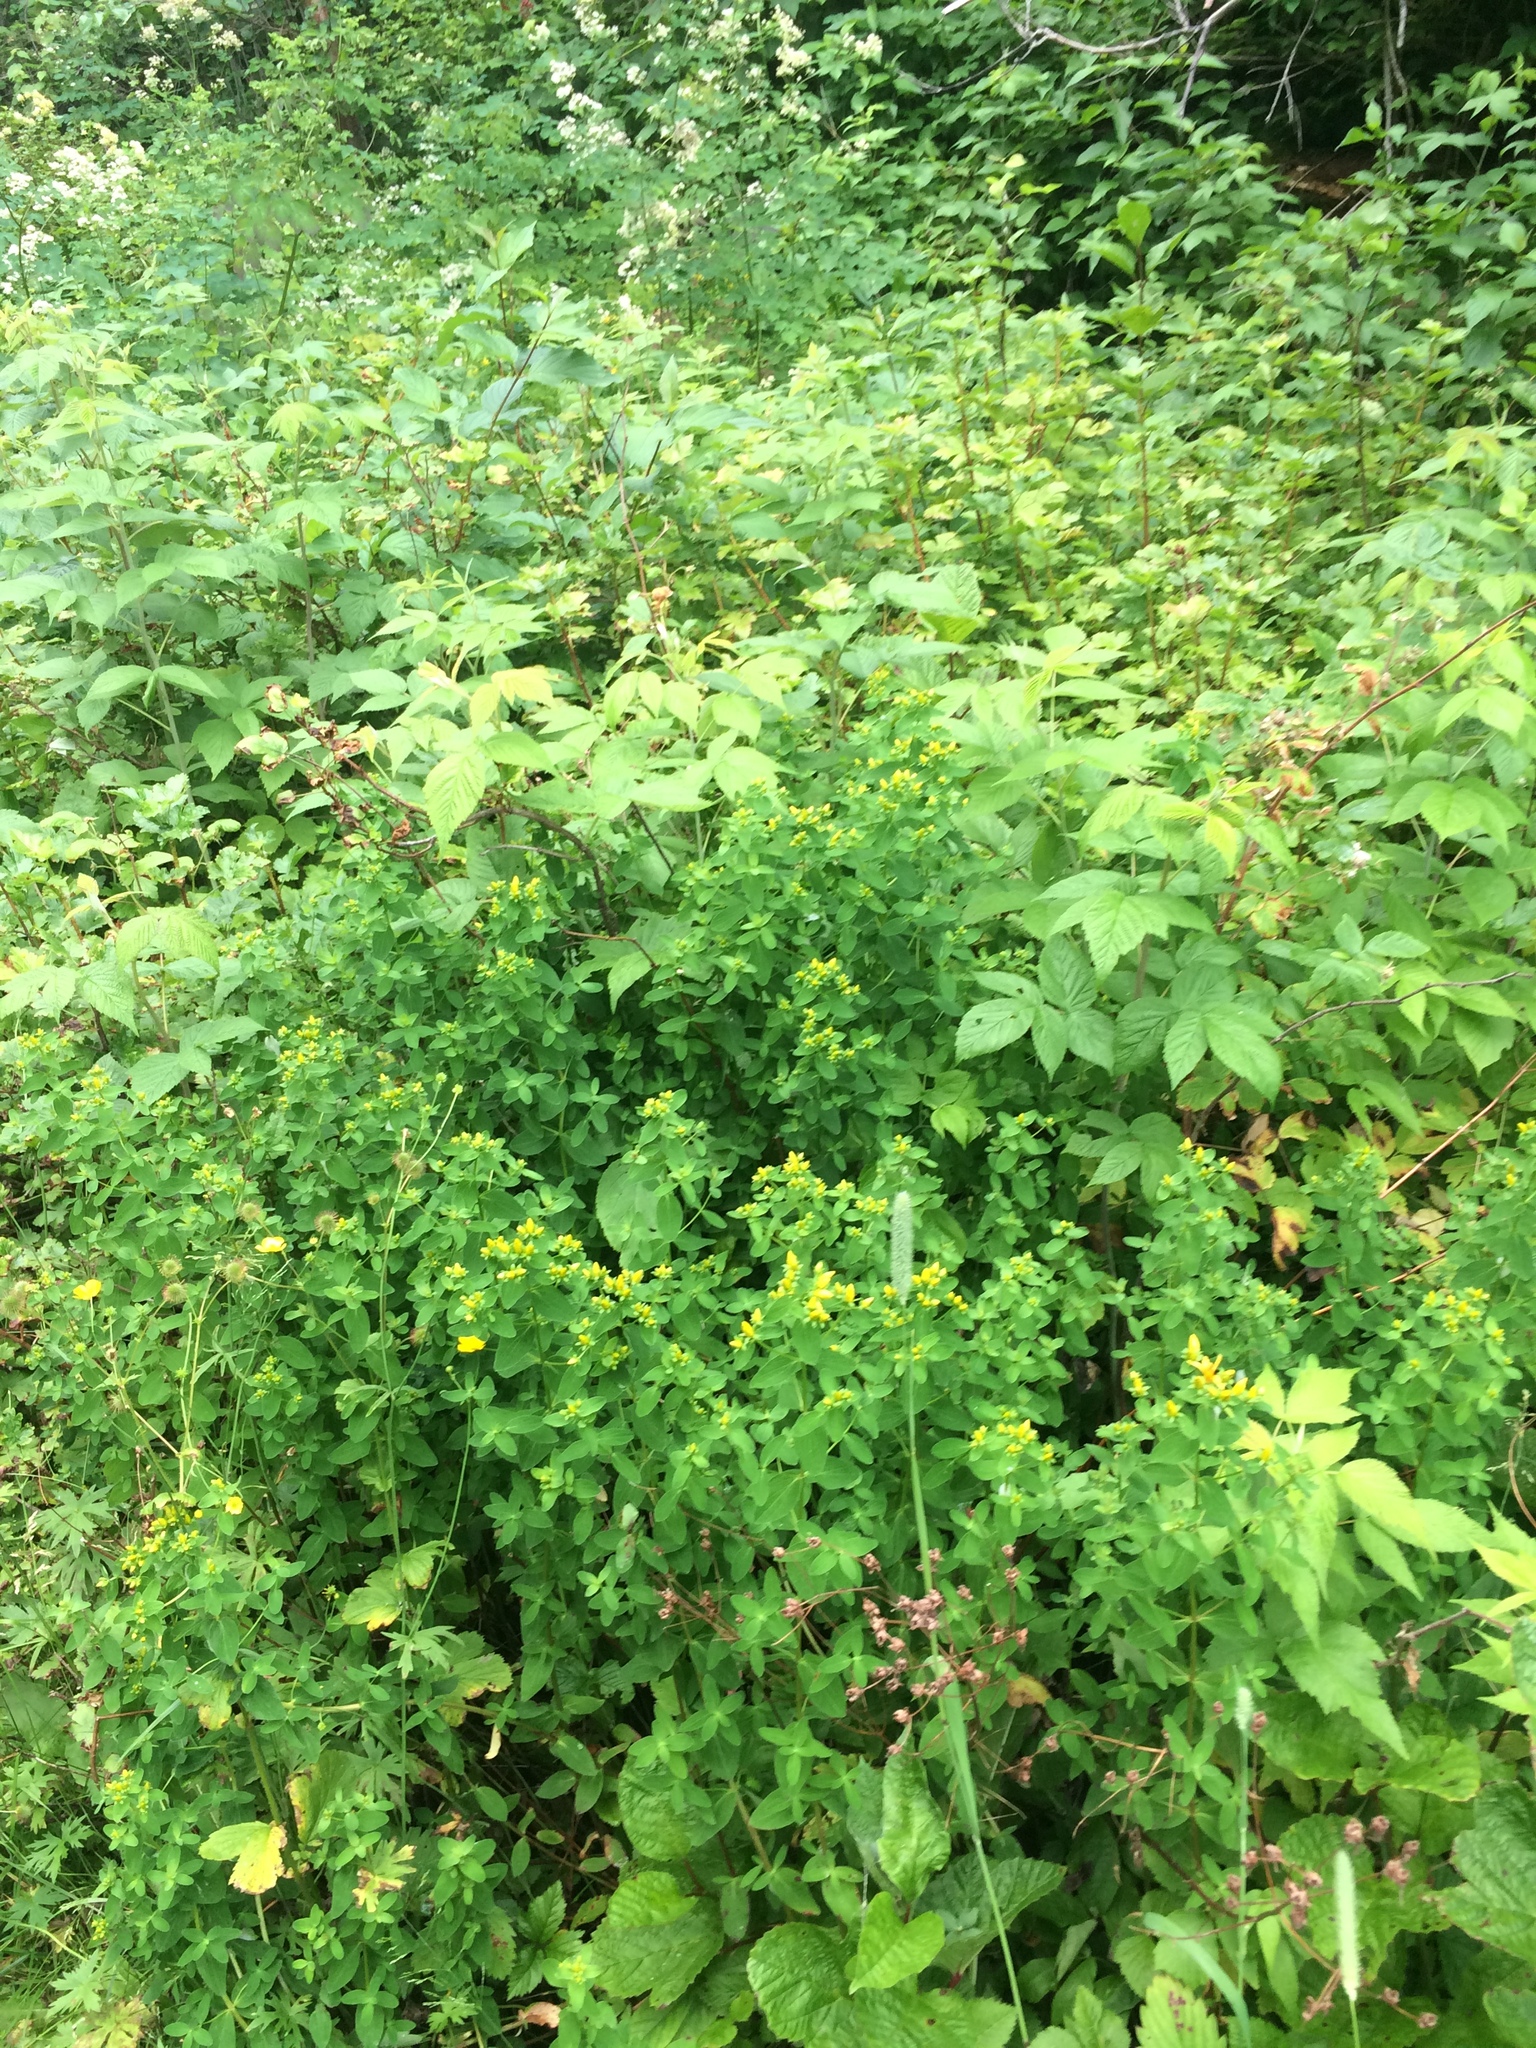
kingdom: Plantae
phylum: Tracheophyta
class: Magnoliopsida
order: Malpighiales
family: Hypericaceae
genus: Hypericum
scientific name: Hypericum dubium
